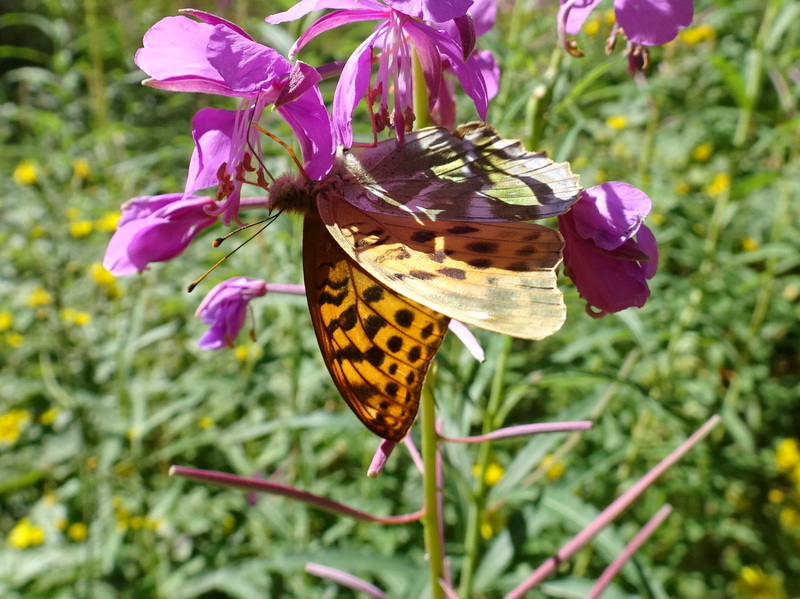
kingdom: Animalia
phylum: Arthropoda
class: Insecta
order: Lepidoptera
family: Nymphalidae
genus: Argynnis
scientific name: Argynnis paphia
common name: Silver-washed fritillary
